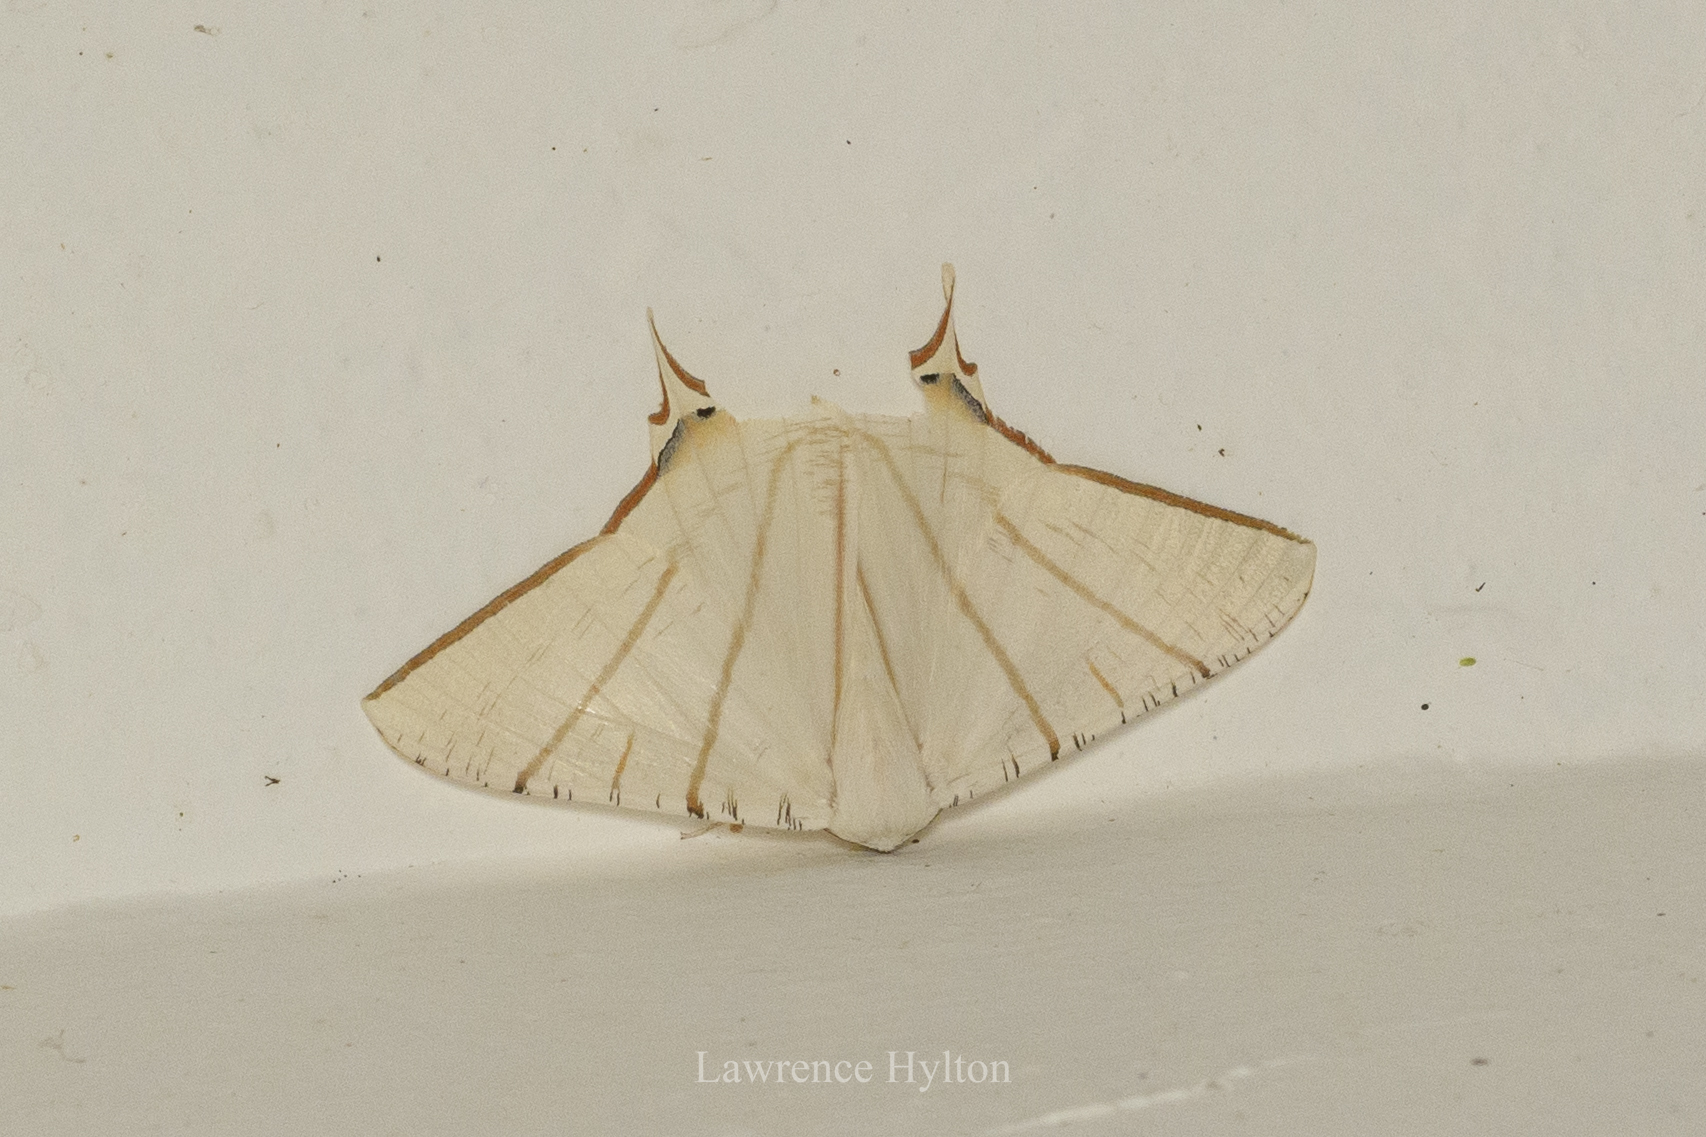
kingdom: Animalia
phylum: Arthropoda
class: Insecta
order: Lepidoptera
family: Geometridae
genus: Ourapteryx
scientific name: Ourapteryx clara
